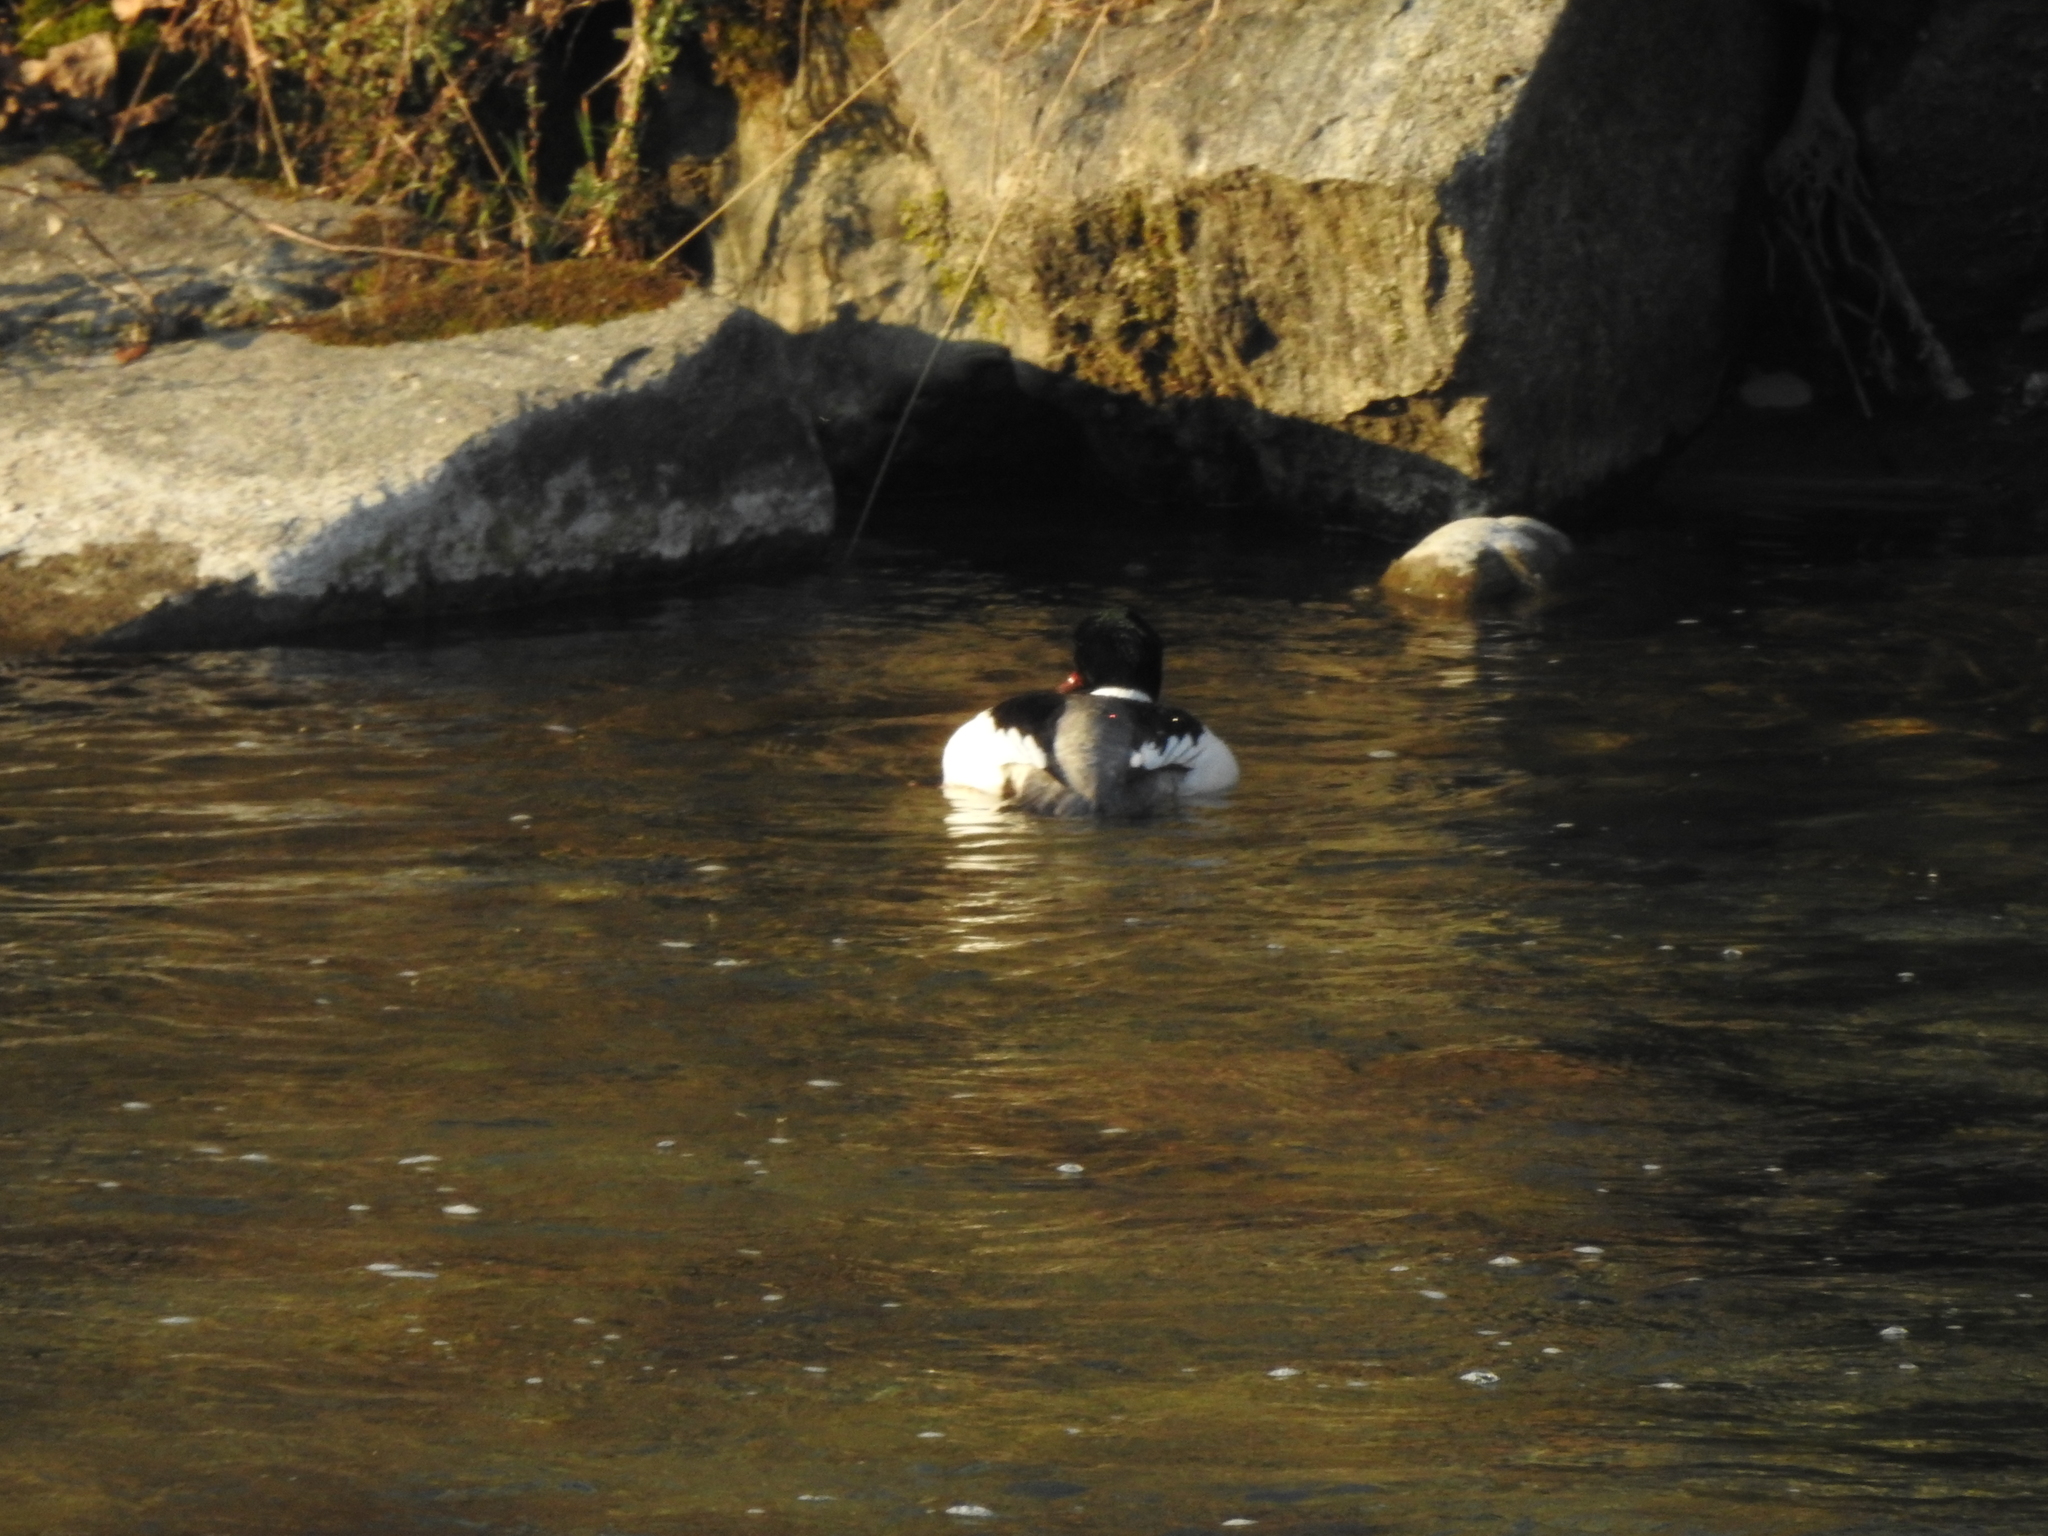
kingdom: Animalia
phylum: Chordata
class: Aves
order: Anseriformes
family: Anatidae
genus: Mergus
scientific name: Mergus merganser
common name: Common merganser
